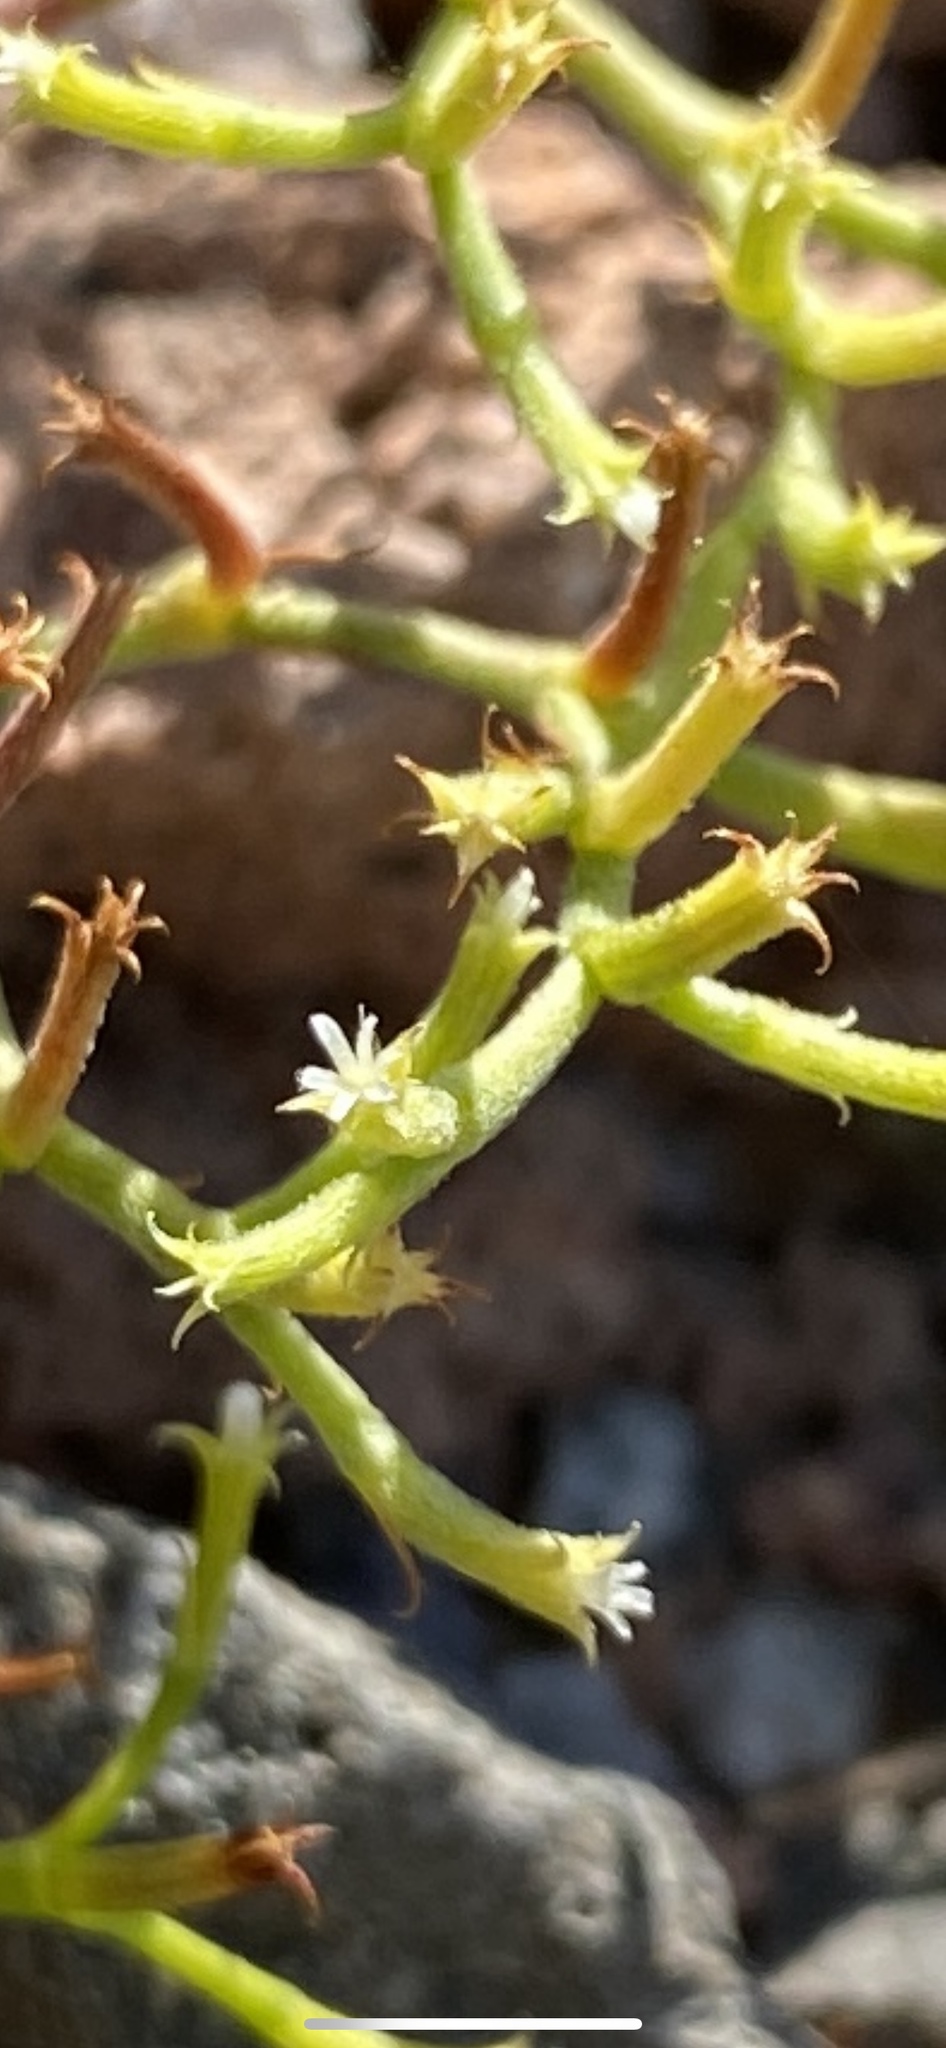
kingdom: Plantae
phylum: Tracheophyta
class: Magnoliopsida
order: Caryophyllales
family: Polygonaceae
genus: Chorizanthe
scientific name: Chorizanthe brevicornu
